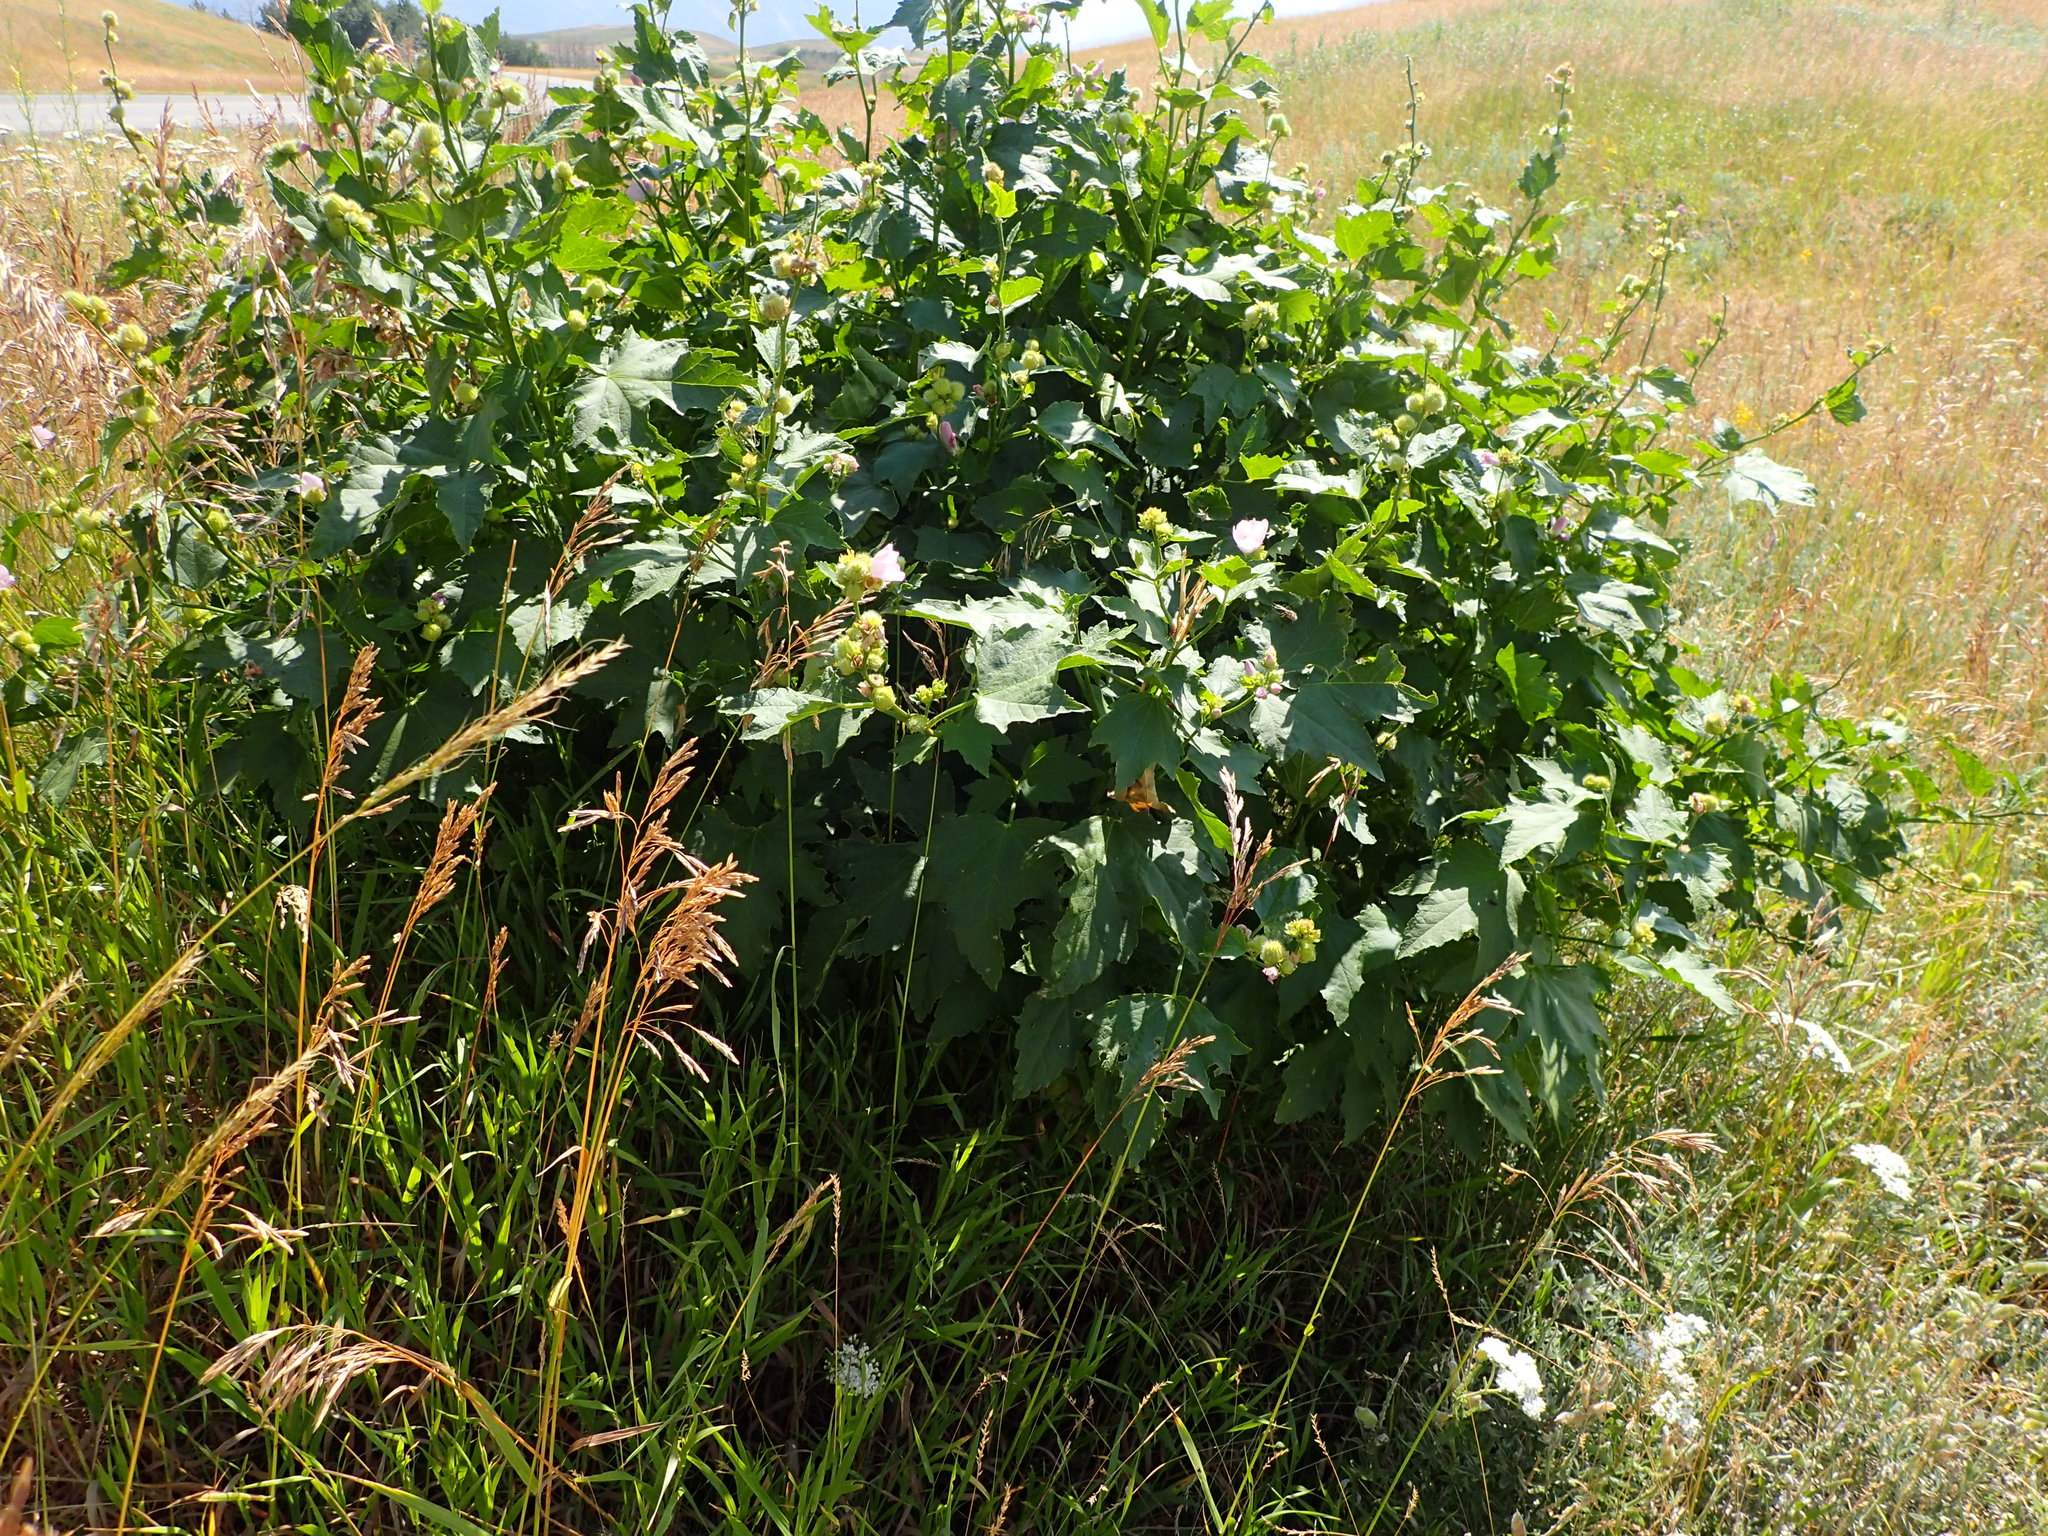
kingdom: Plantae
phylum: Tracheophyta
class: Magnoliopsida
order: Malvales
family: Malvaceae
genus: Iliamna
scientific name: Iliamna rivularis
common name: Wild hollyhock
